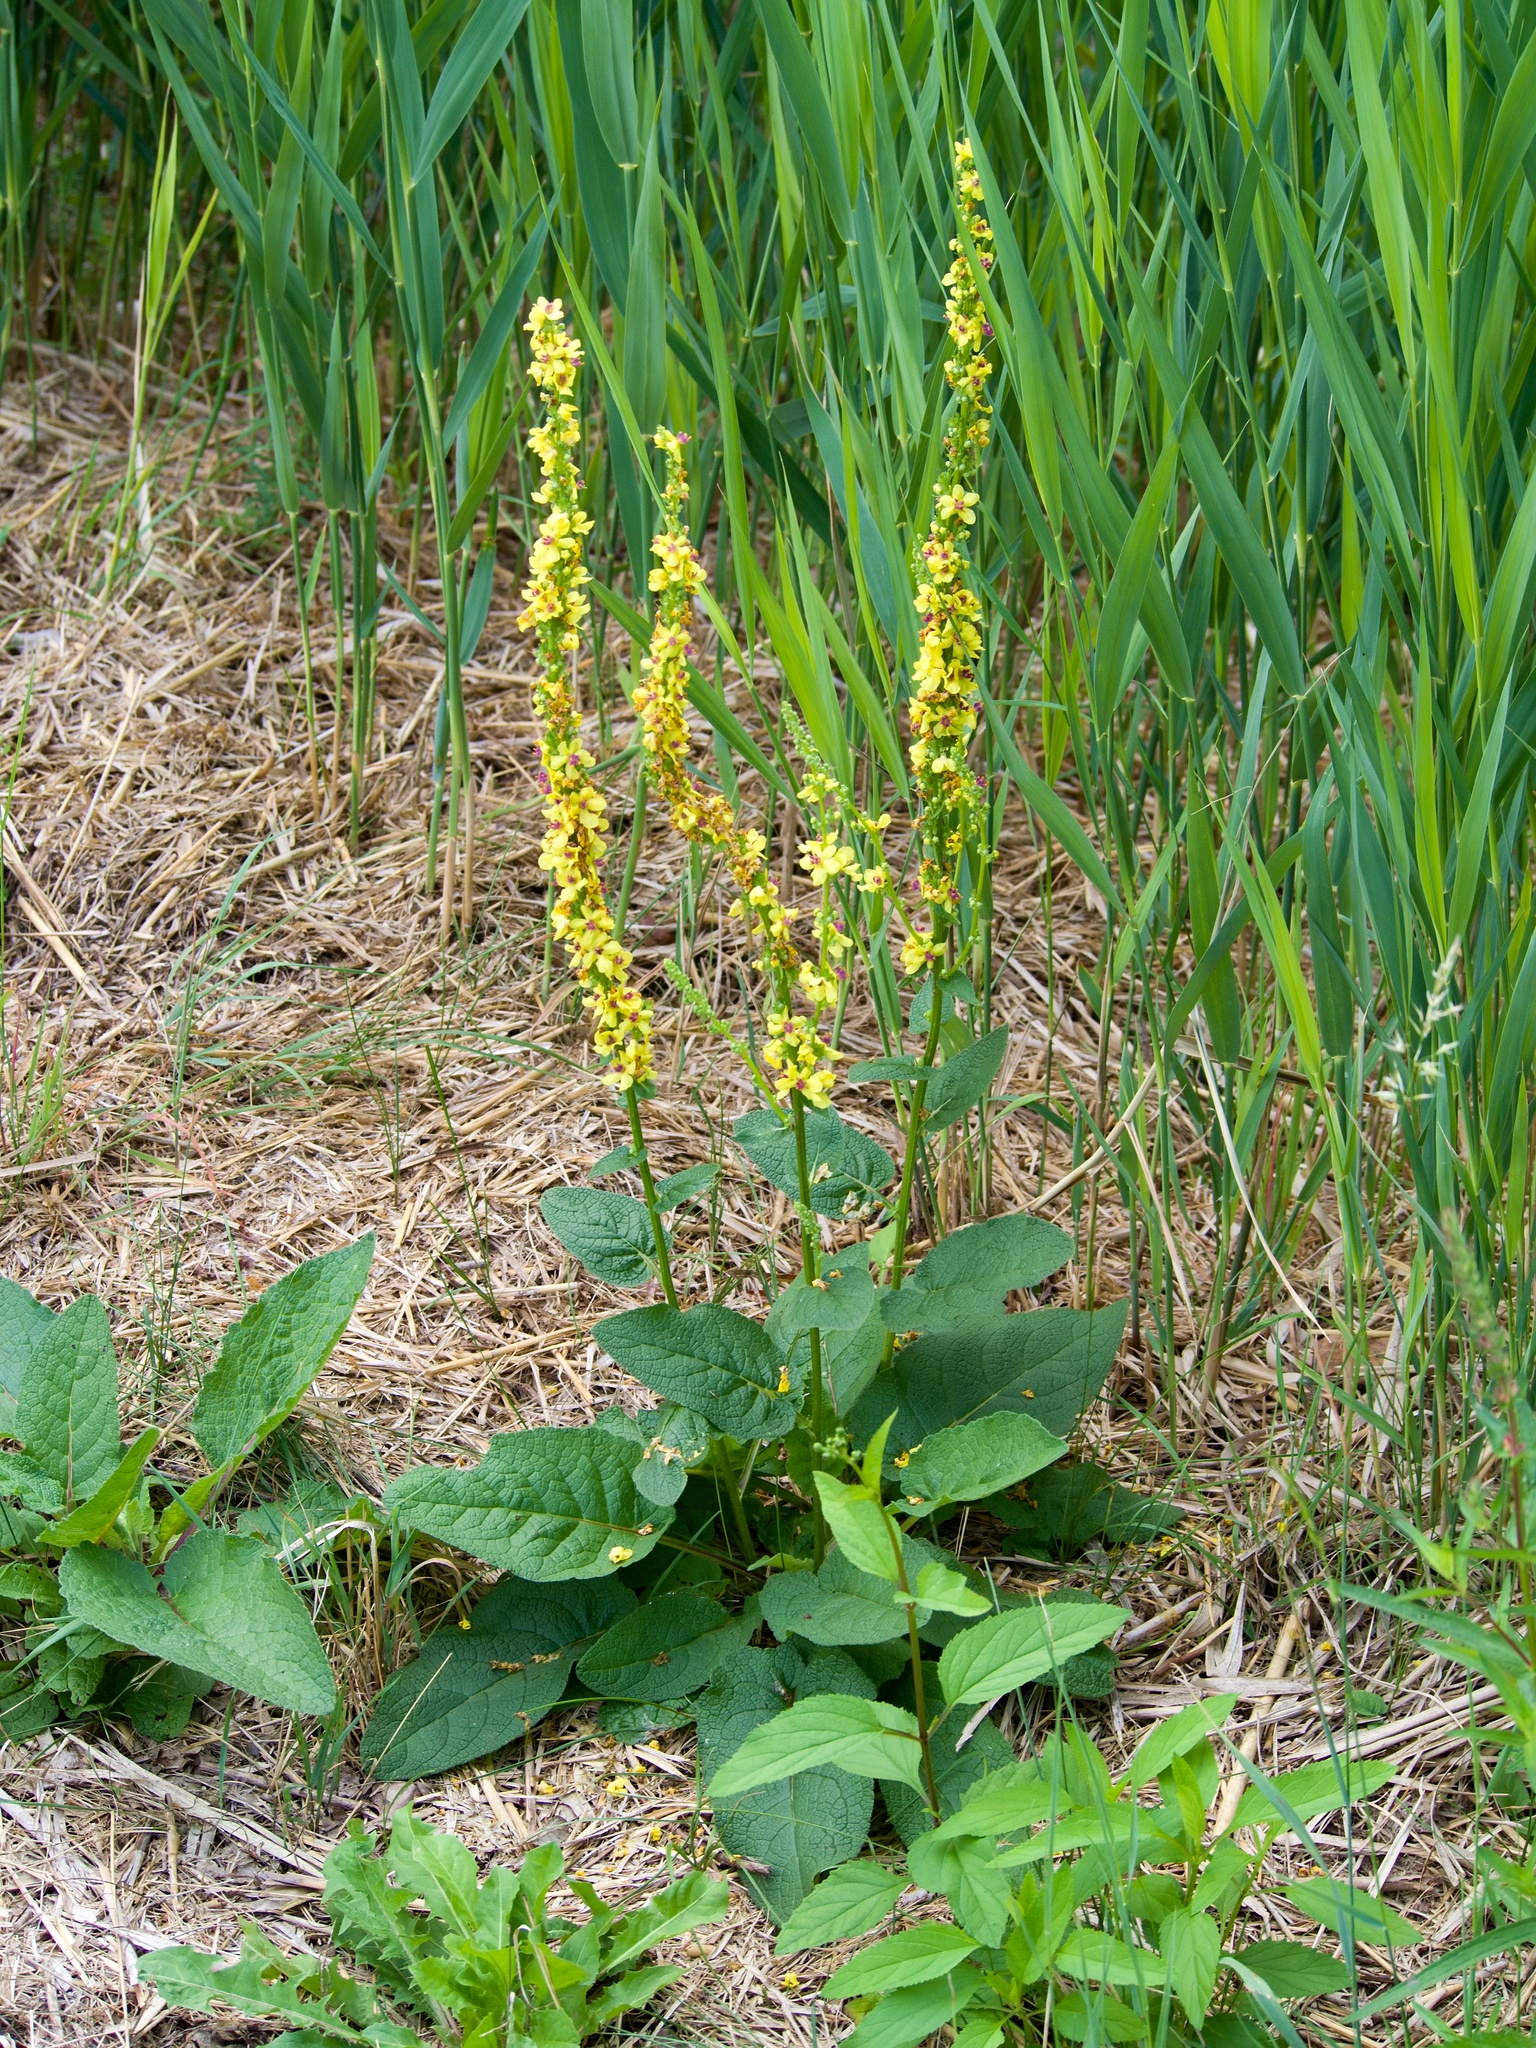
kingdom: Plantae
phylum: Tracheophyta
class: Magnoliopsida
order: Lamiales
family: Scrophulariaceae
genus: Verbascum
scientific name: Verbascum nigrum
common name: Dark mullein
